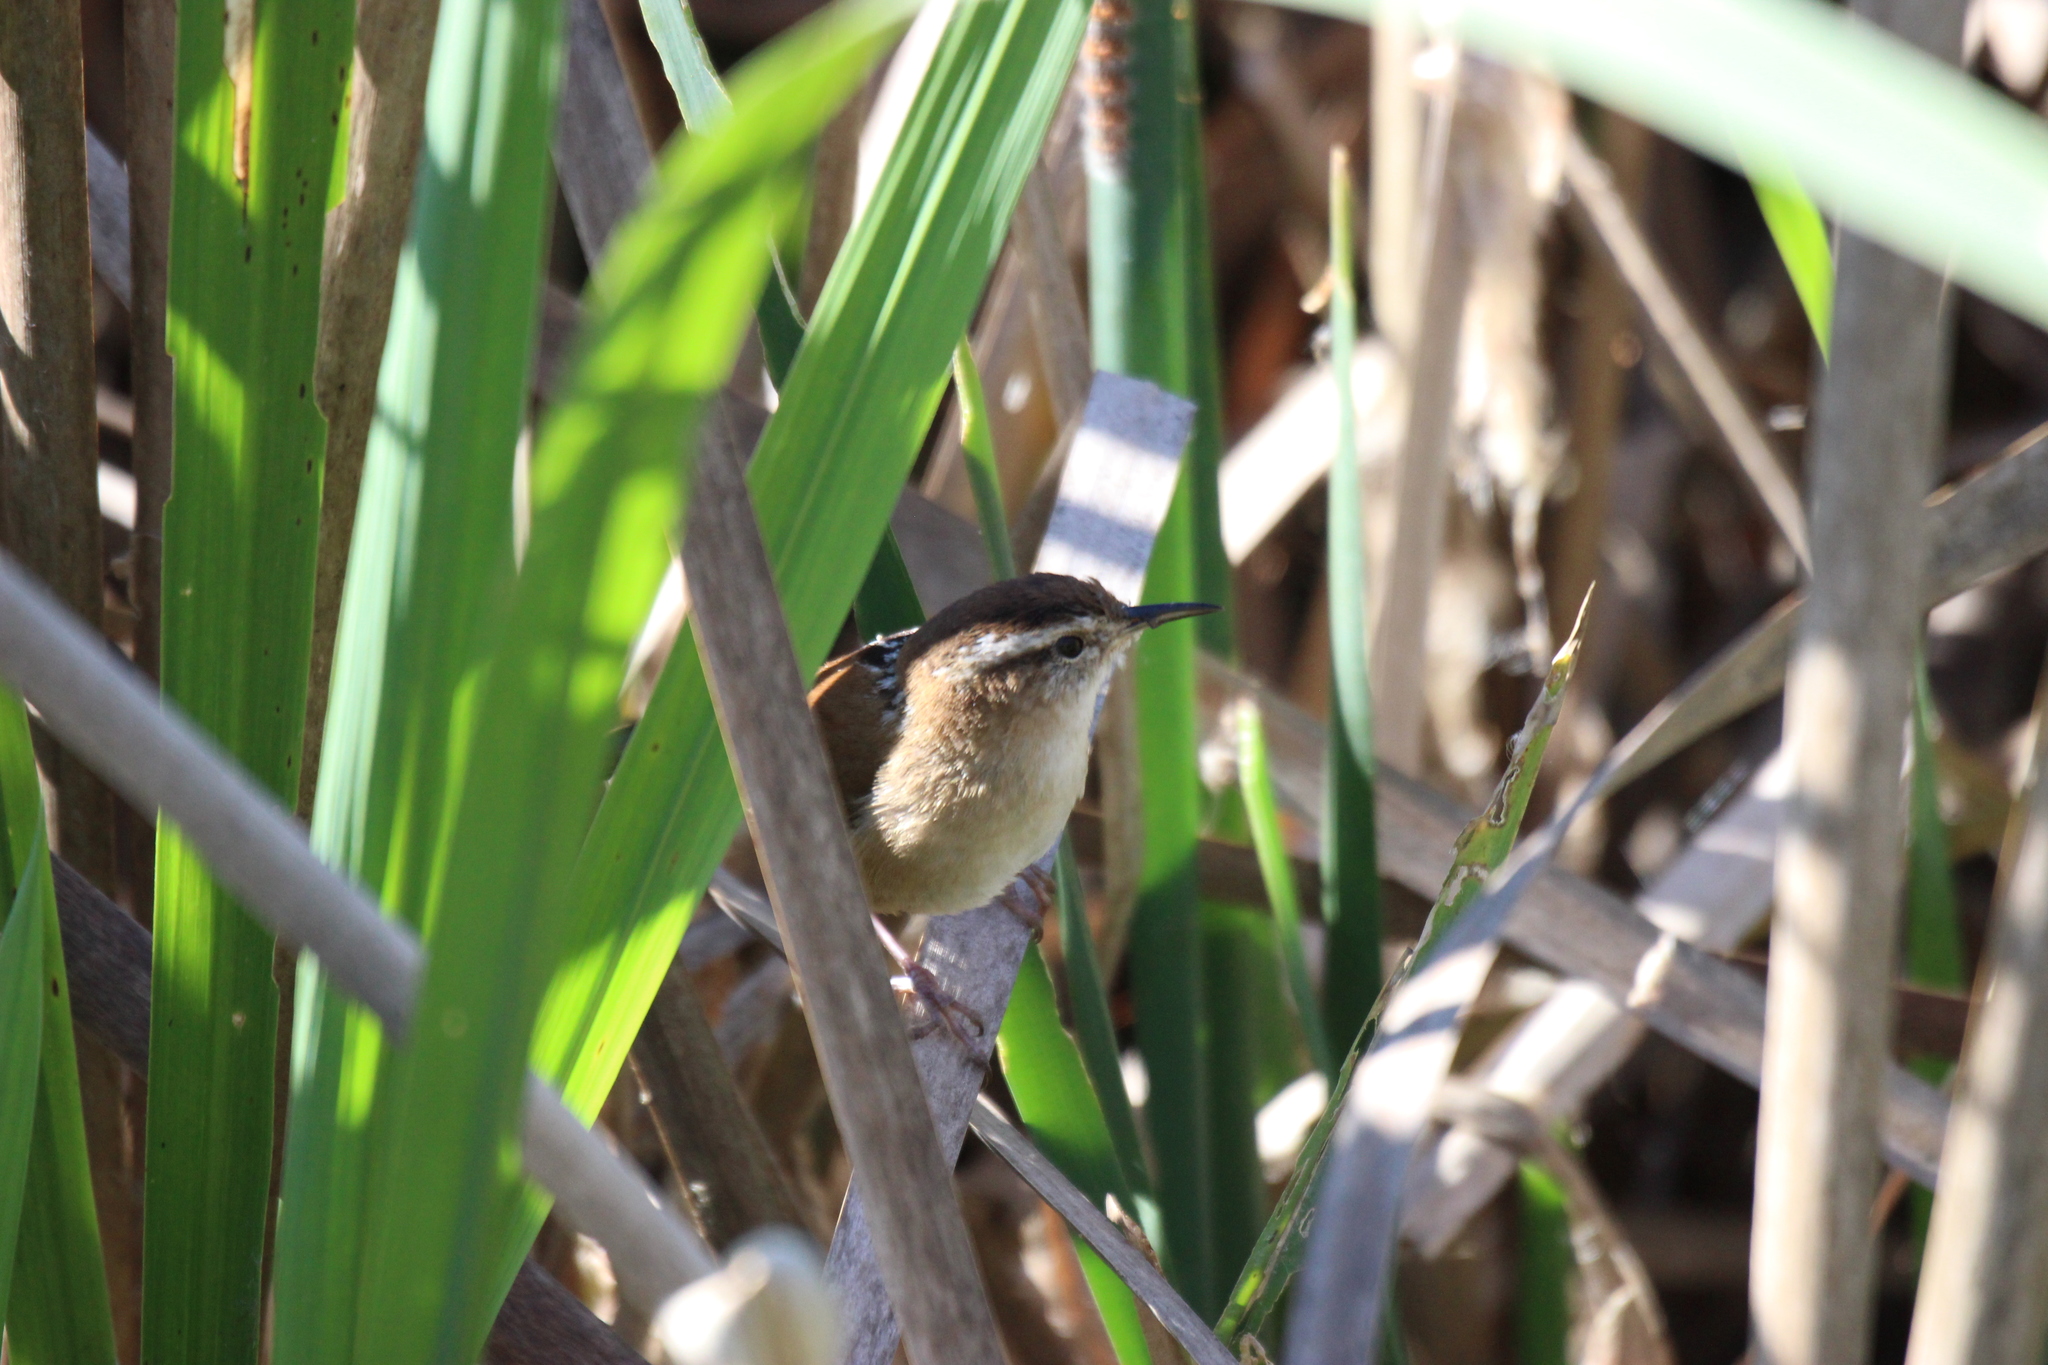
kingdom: Animalia
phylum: Chordata
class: Aves
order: Passeriformes
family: Troglodytidae
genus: Cistothorus
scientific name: Cistothorus palustris
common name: Marsh wren
